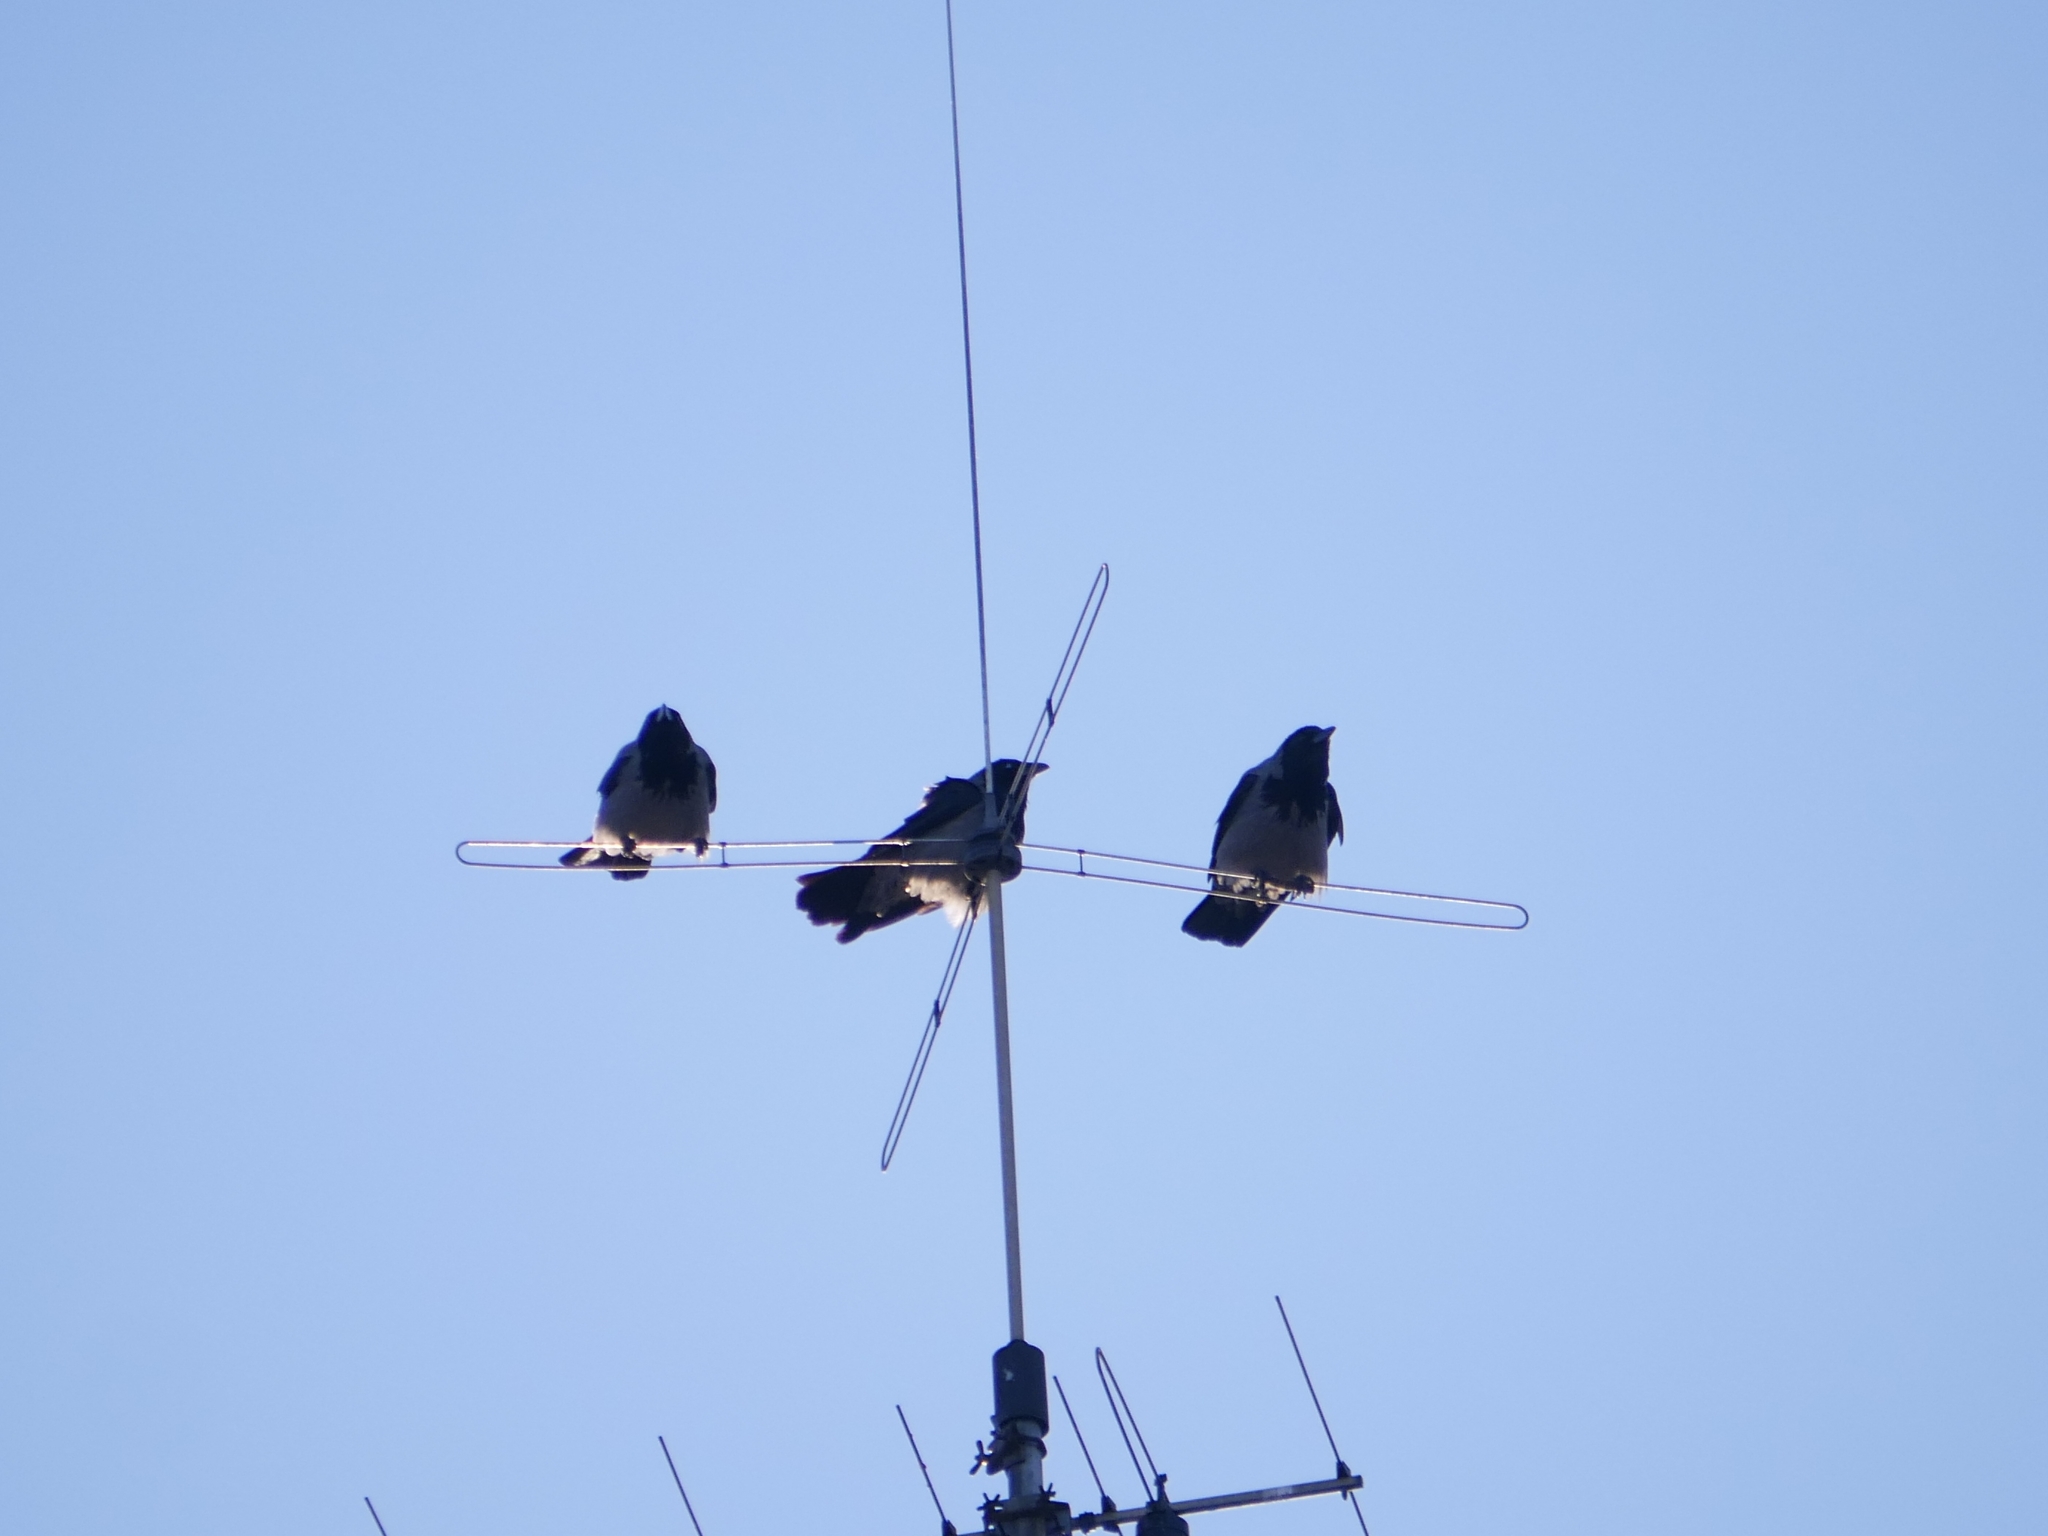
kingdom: Animalia
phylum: Chordata
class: Aves
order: Passeriformes
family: Corvidae
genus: Corvus
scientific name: Corvus cornix
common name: Hooded crow
